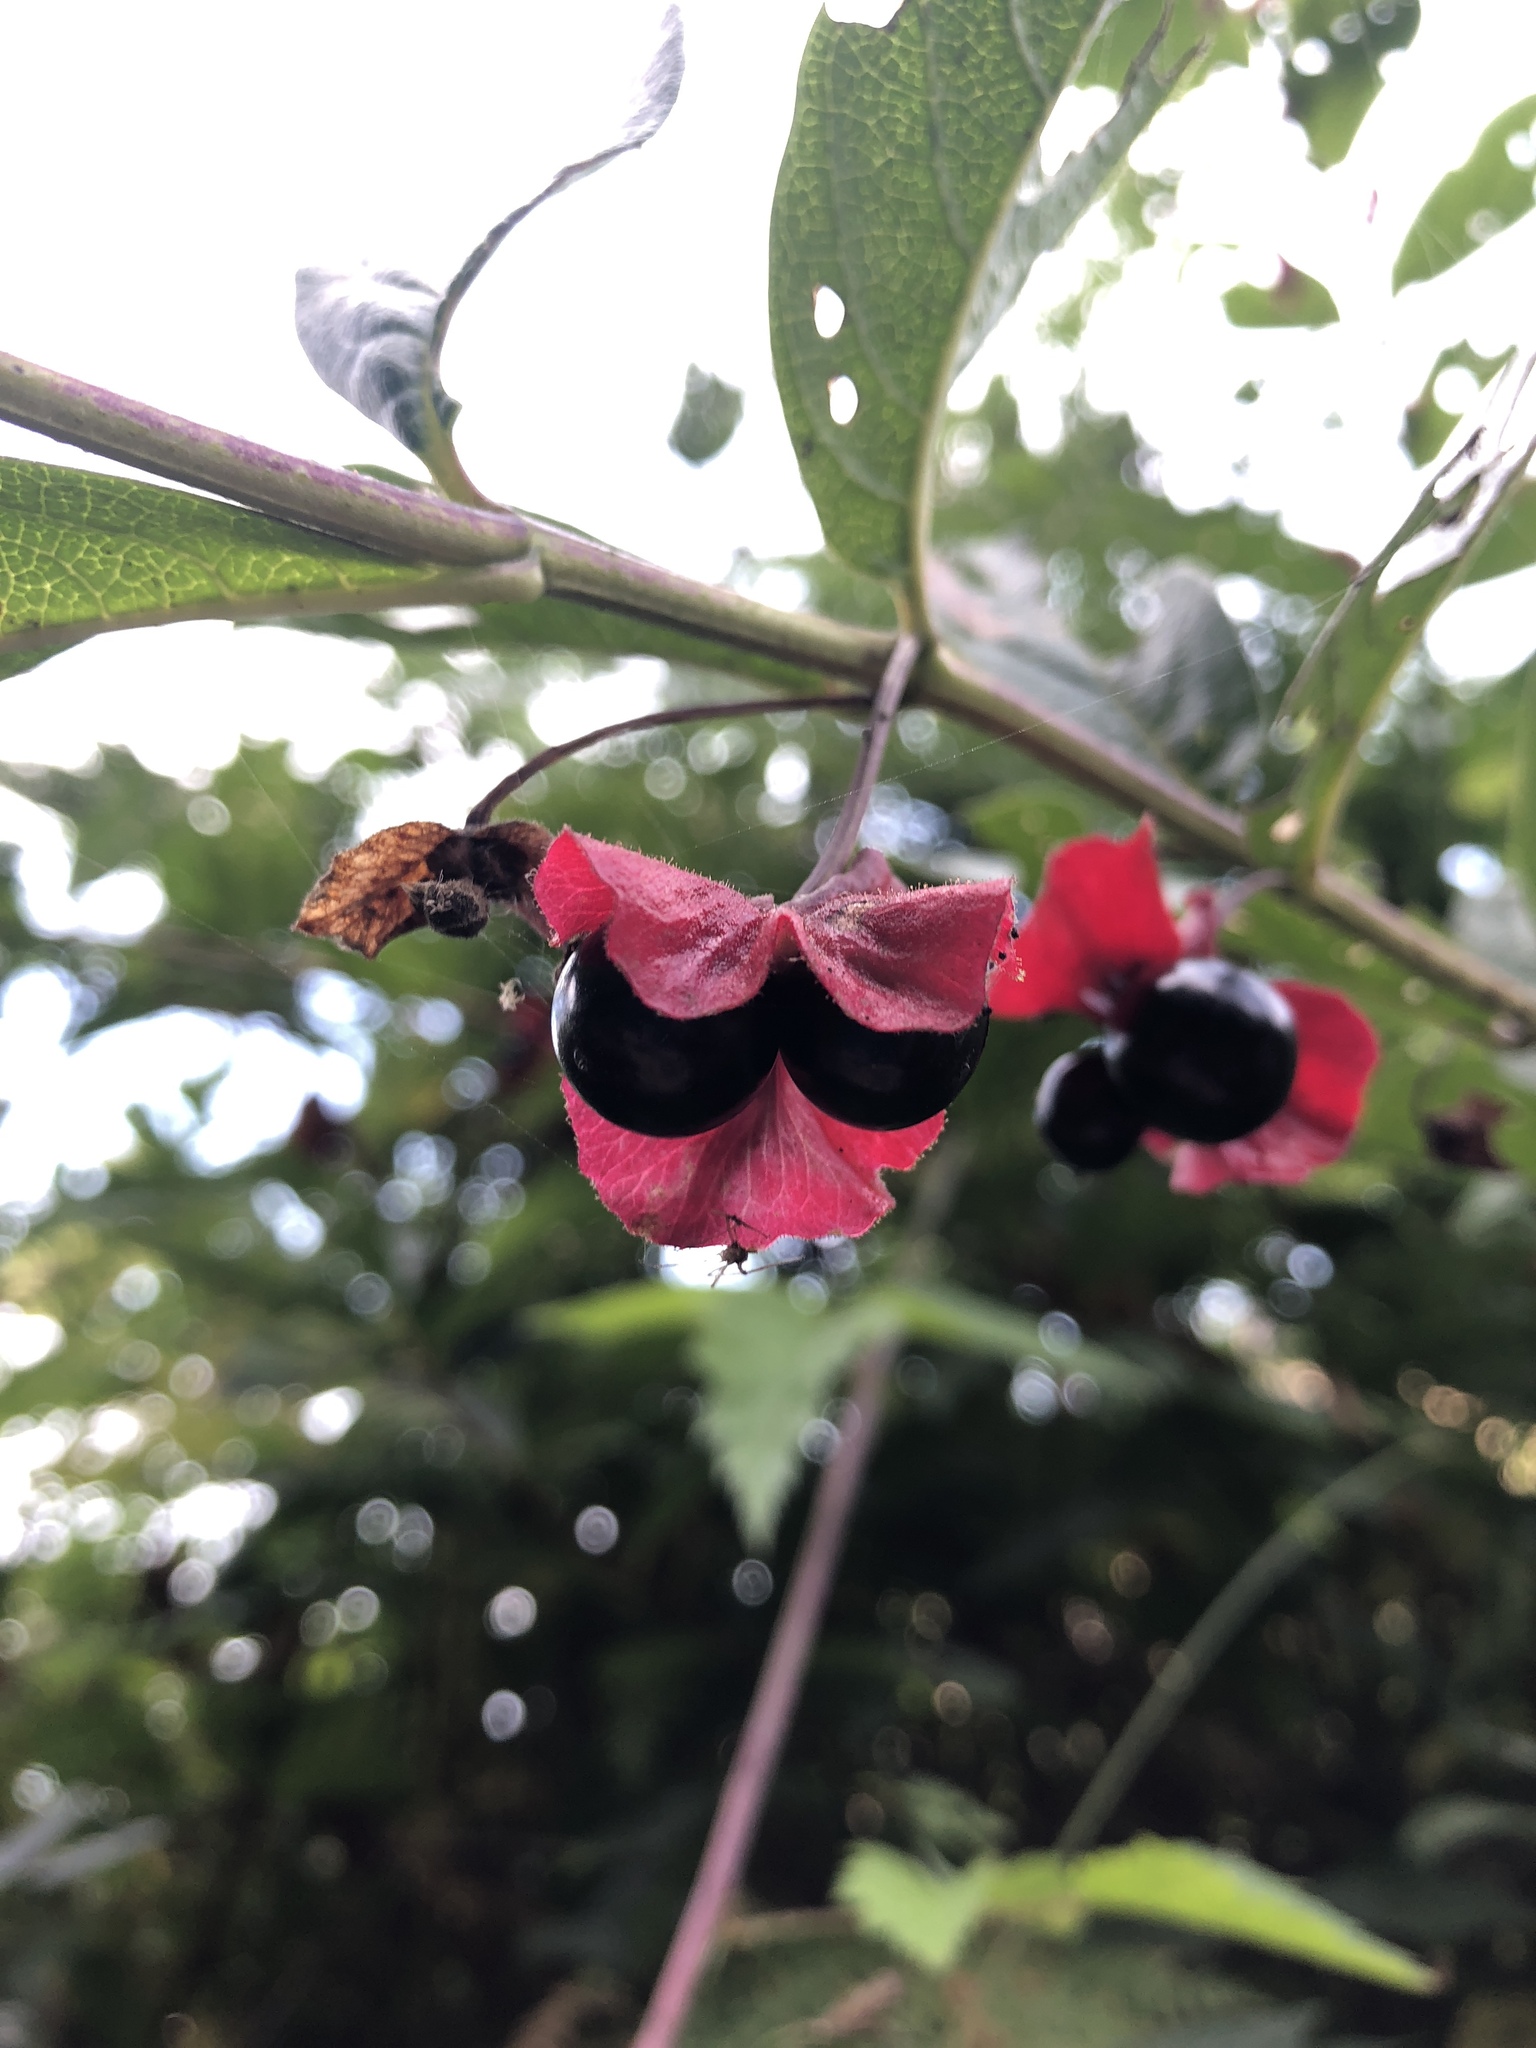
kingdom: Plantae
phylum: Tracheophyta
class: Magnoliopsida
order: Dipsacales
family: Caprifoliaceae
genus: Lonicera
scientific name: Lonicera involucrata
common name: Californian honeysuckle
